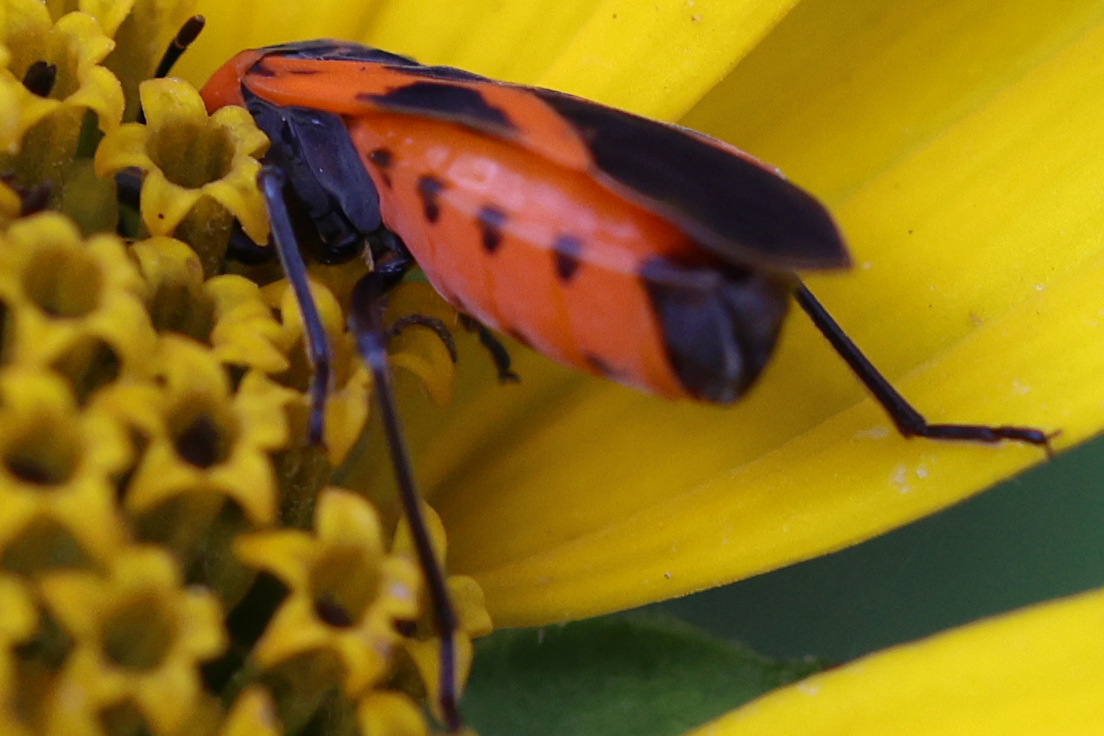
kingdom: Animalia
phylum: Arthropoda
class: Insecta
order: Hemiptera
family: Lygaeidae
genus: Lygaeus
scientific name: Lygaeus turcicus
